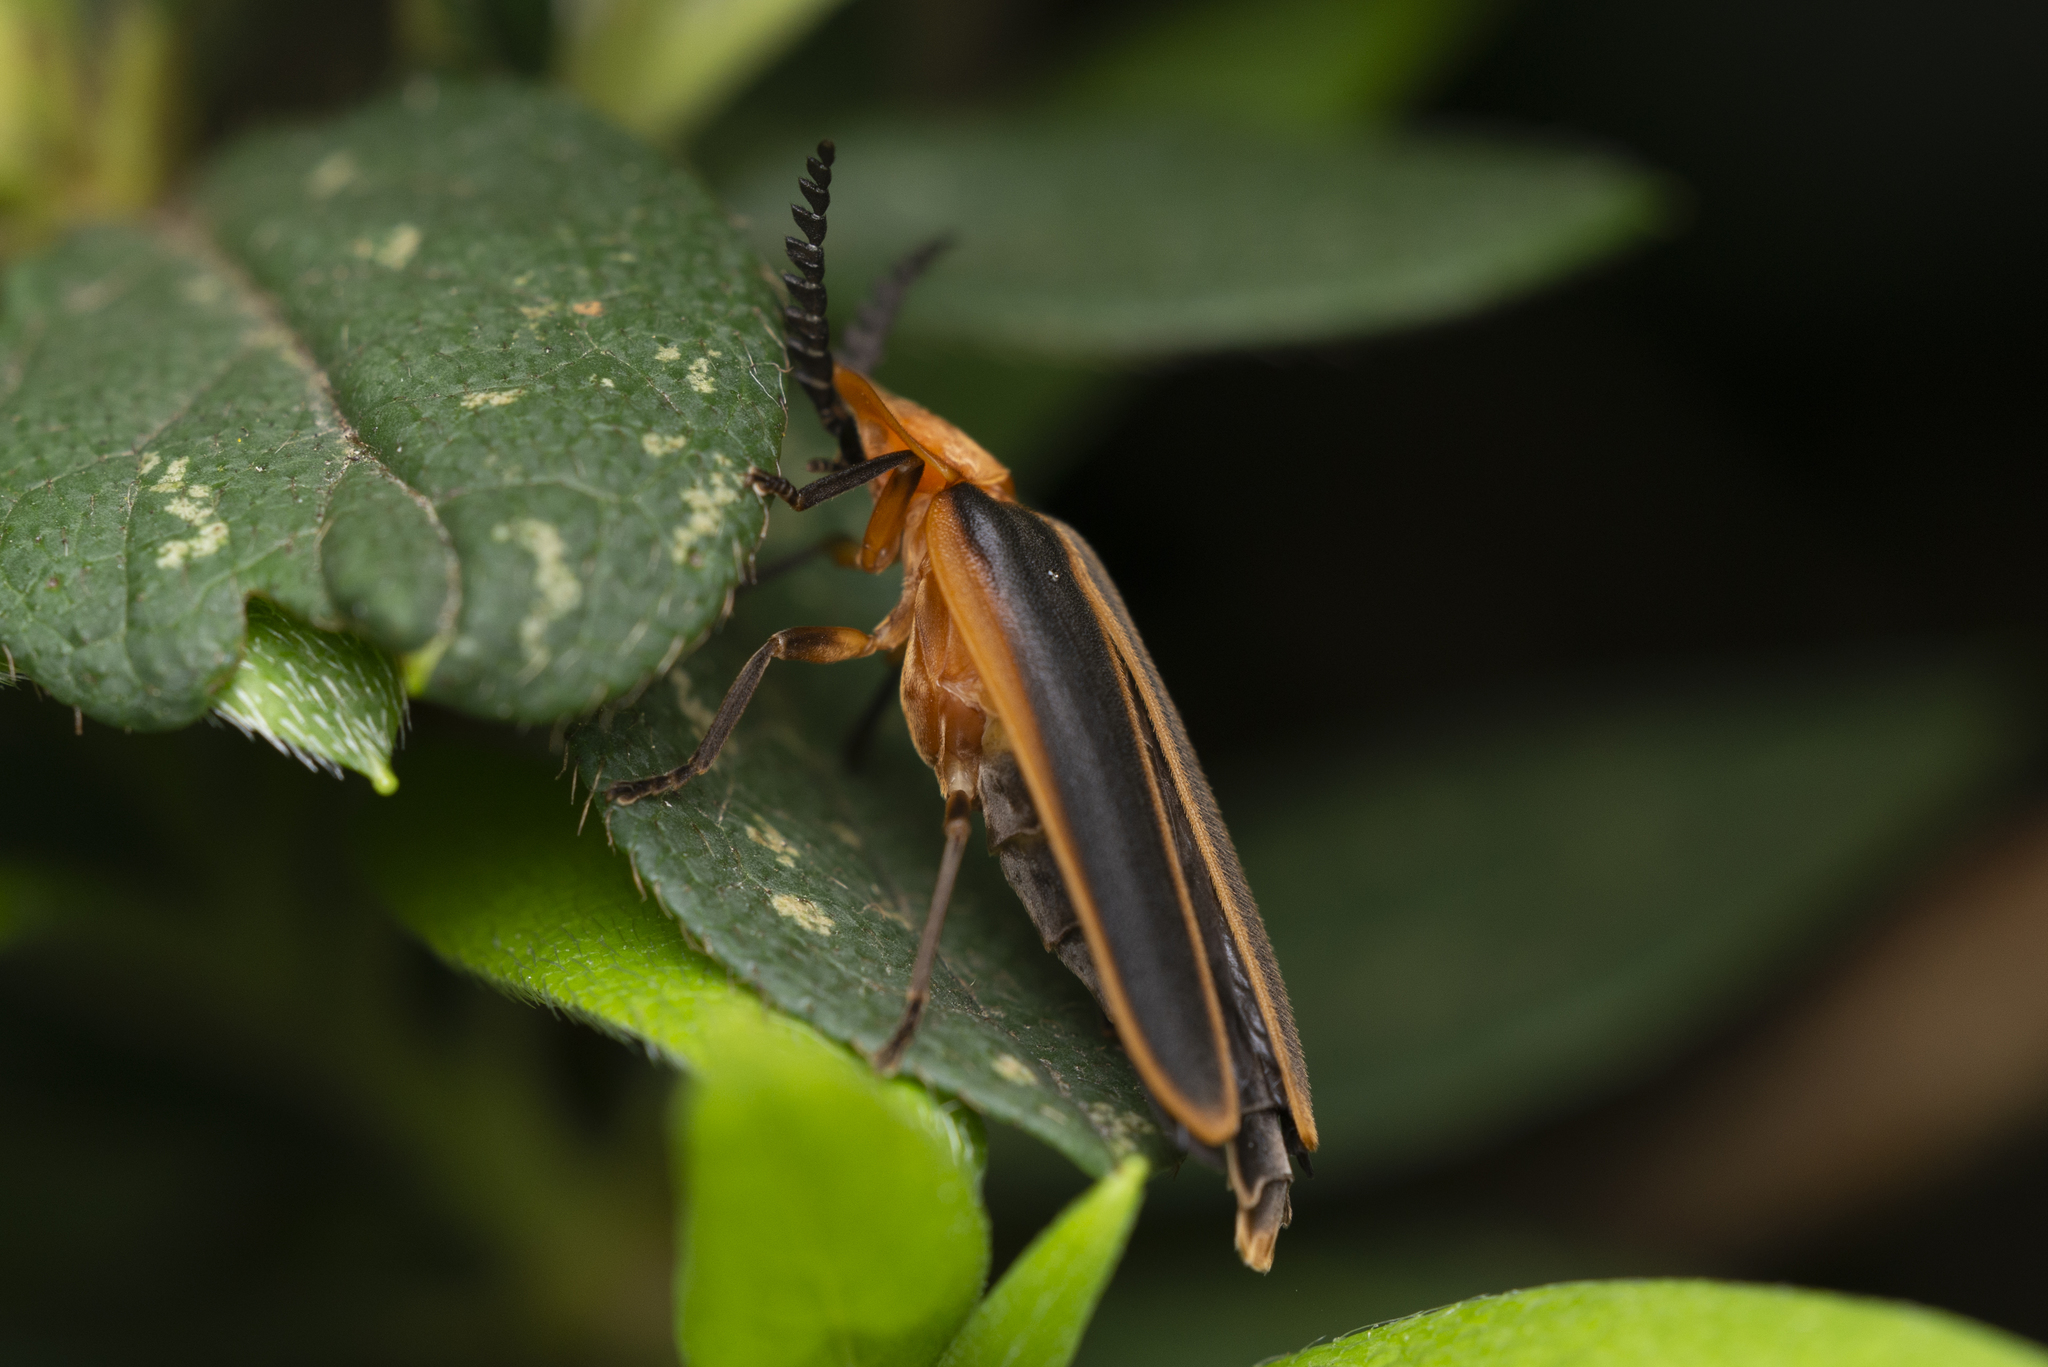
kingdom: Animalia
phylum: Arthropoda
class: Insecta
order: Coleoptera
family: Lampyridae
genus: Pyrocoelia
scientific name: Pyrocoelia analis
